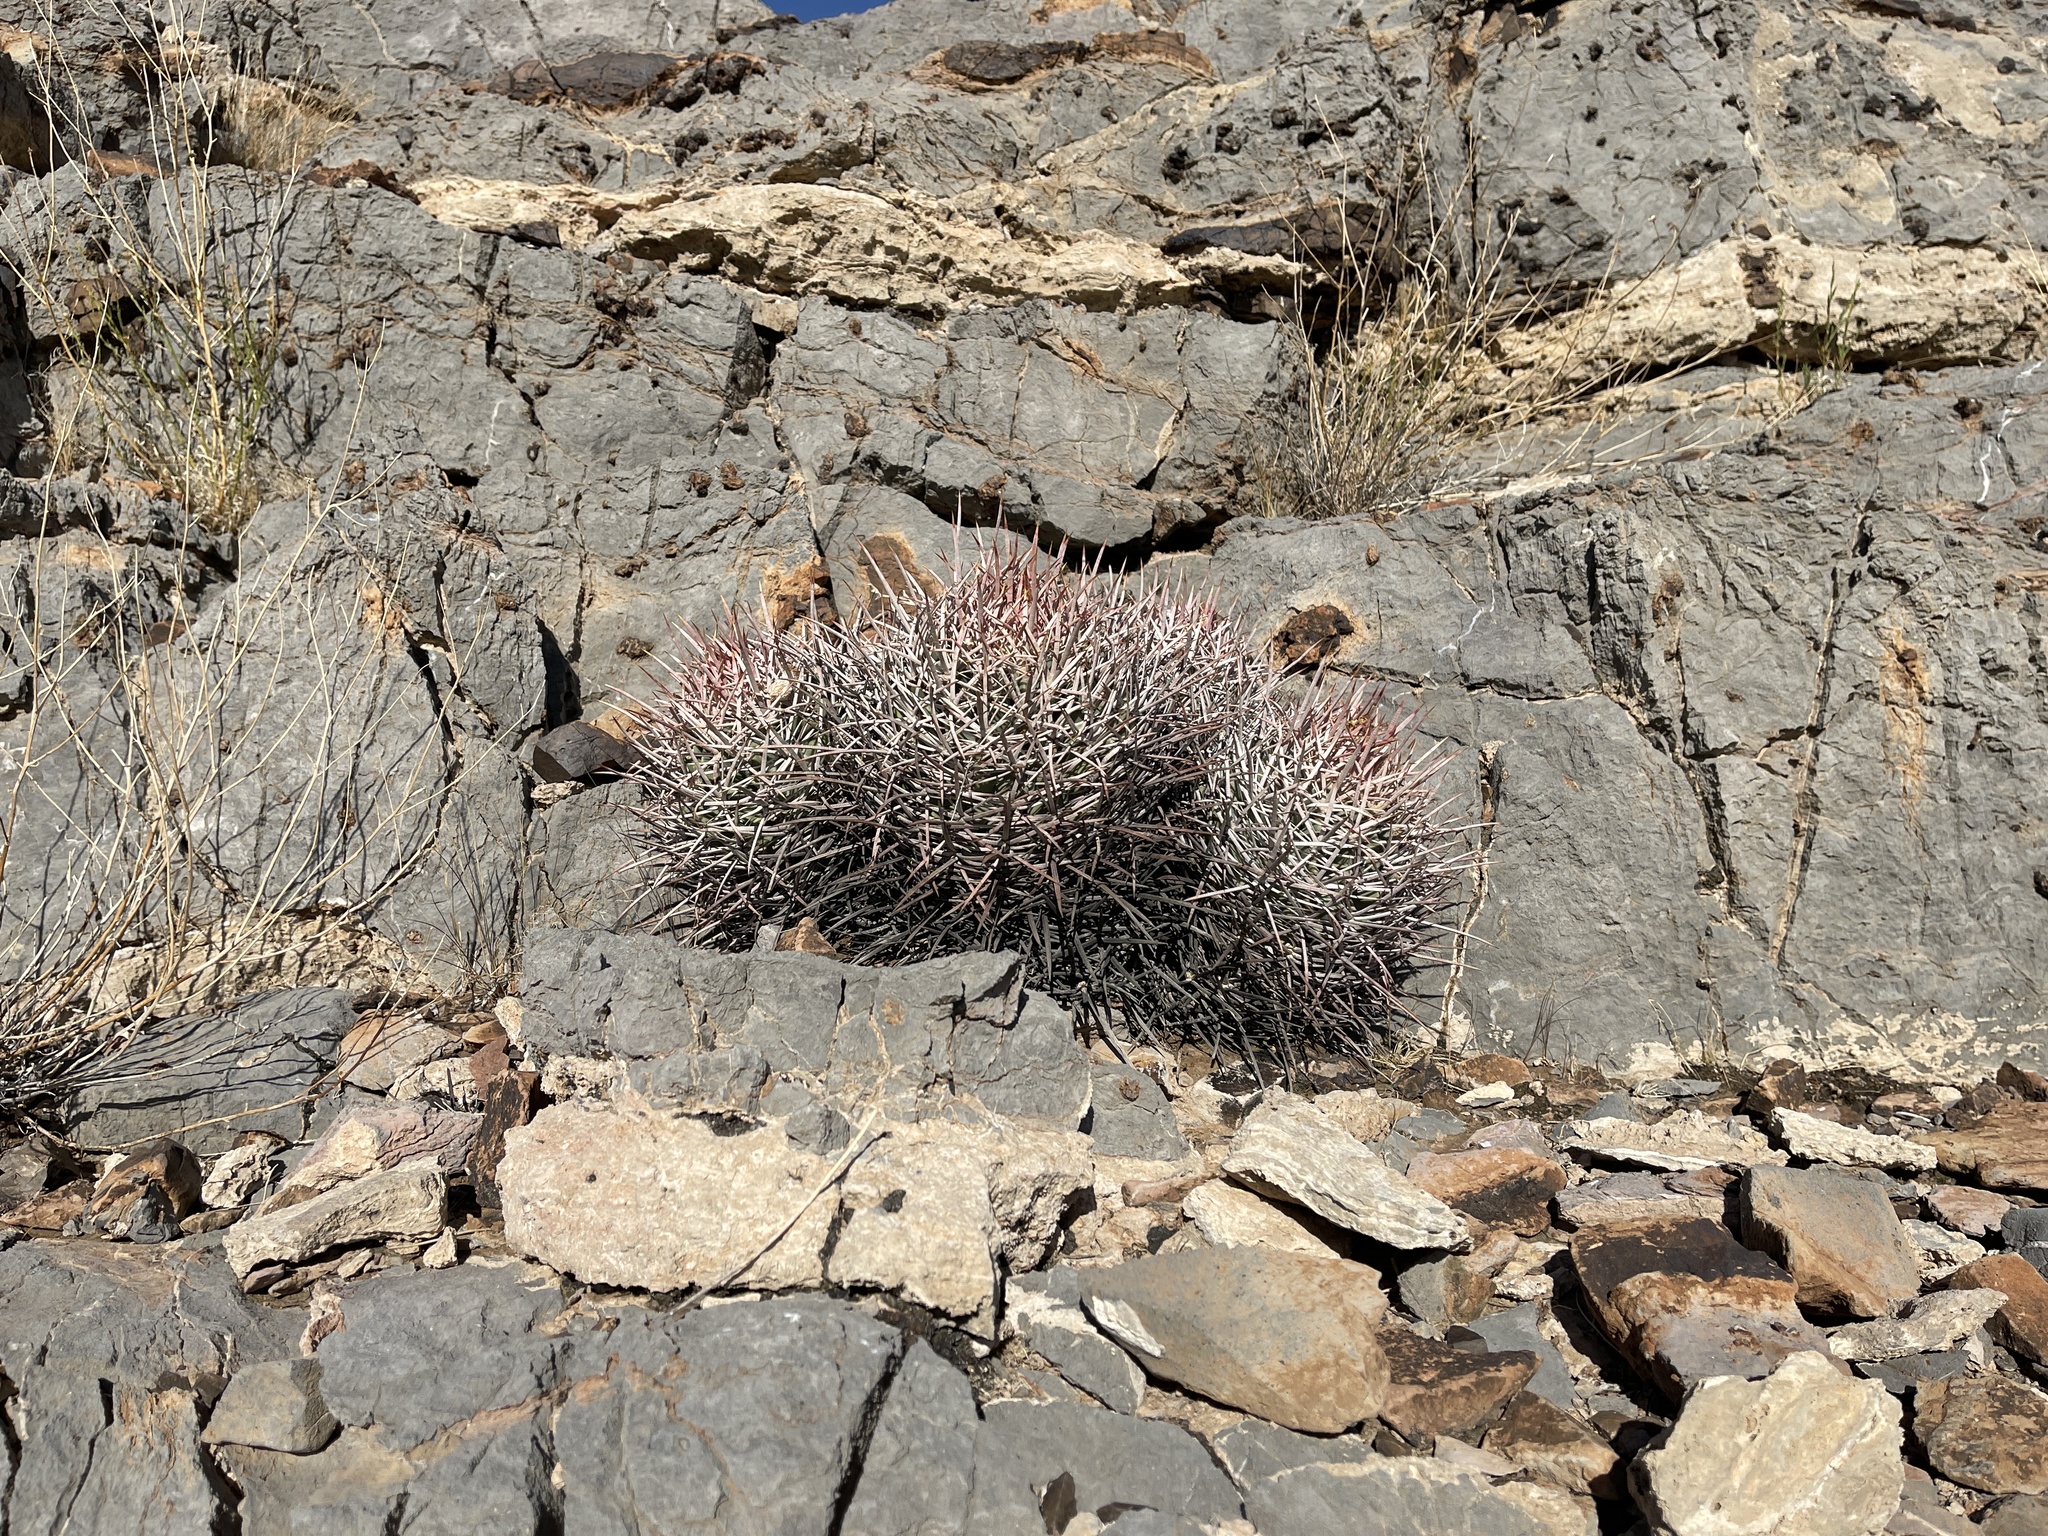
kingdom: Plantae
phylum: Tracheophyta
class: Magnoliopsida
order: Caryophyllales
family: Cactaceae
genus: Echinocactus
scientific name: Echinocactus polycephalus
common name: Cottontop cactus
